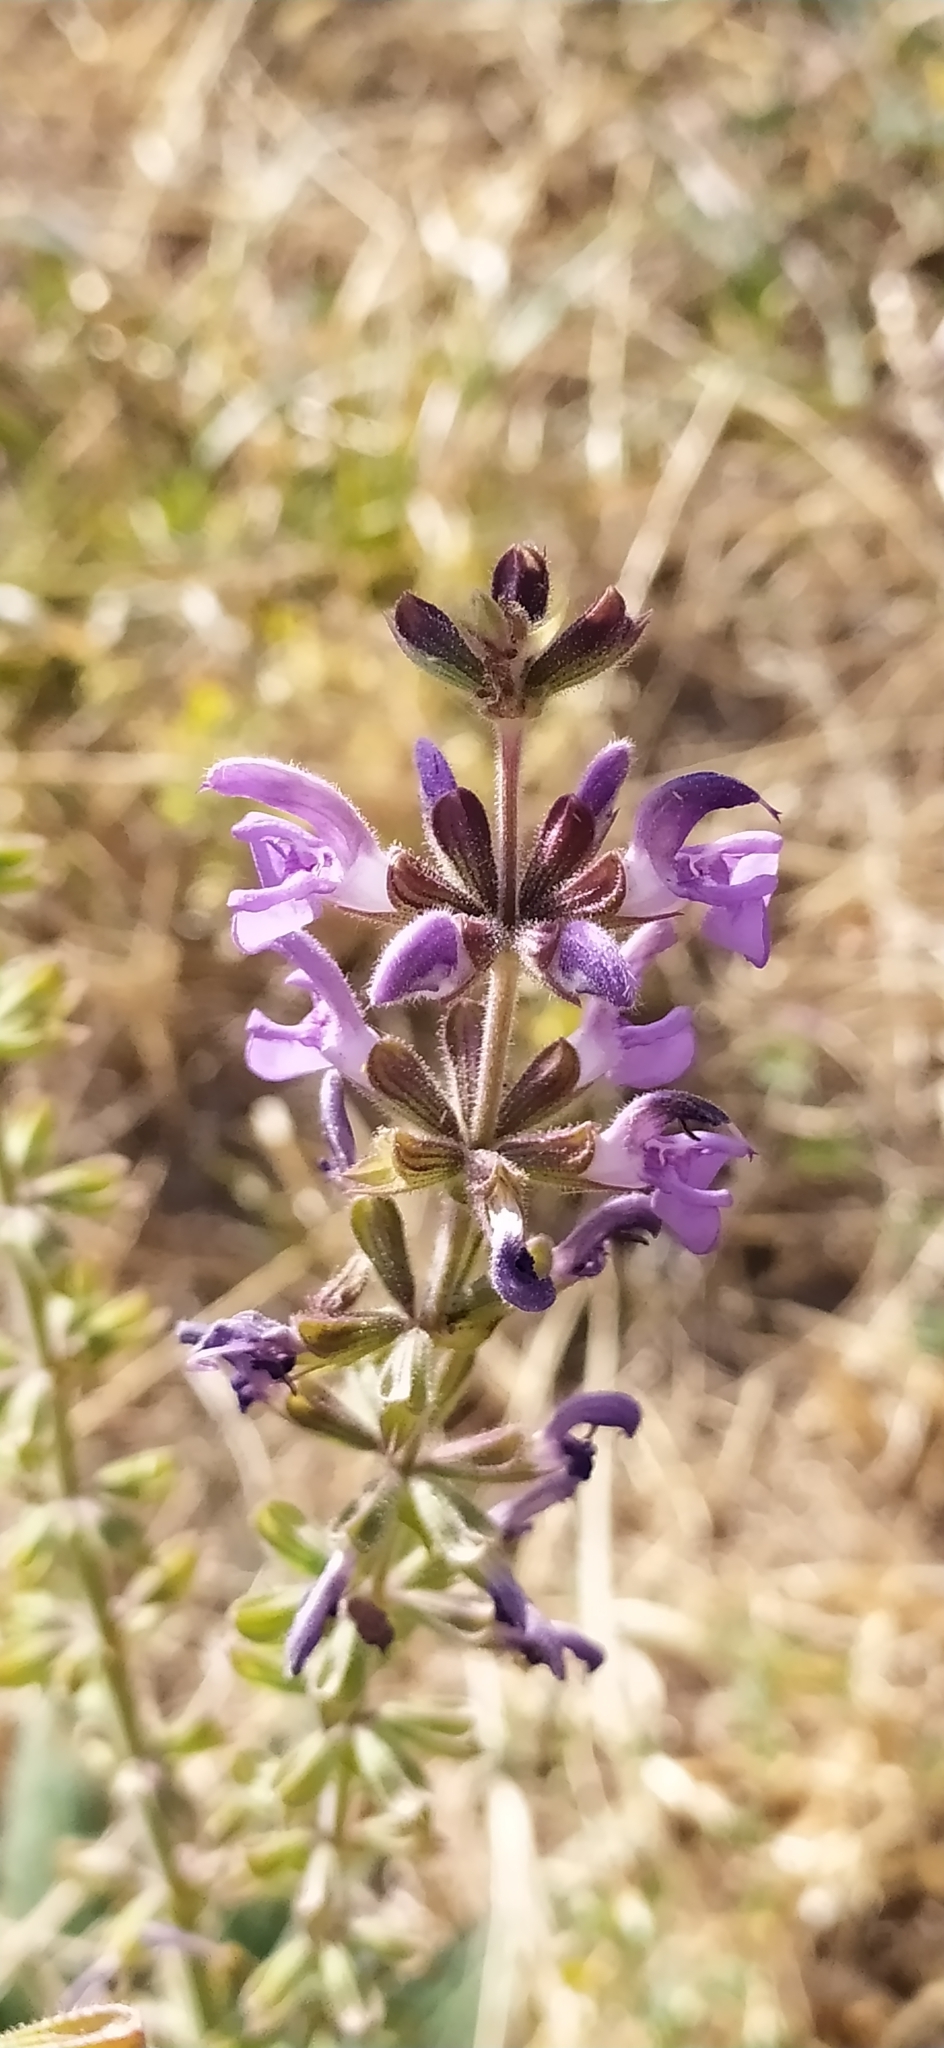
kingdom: Plantae
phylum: Tracheophyta
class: Magnoliopsida
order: Lamiales
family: Lamiaceae
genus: Salvia
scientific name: Salvia virgata
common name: Wand sage
